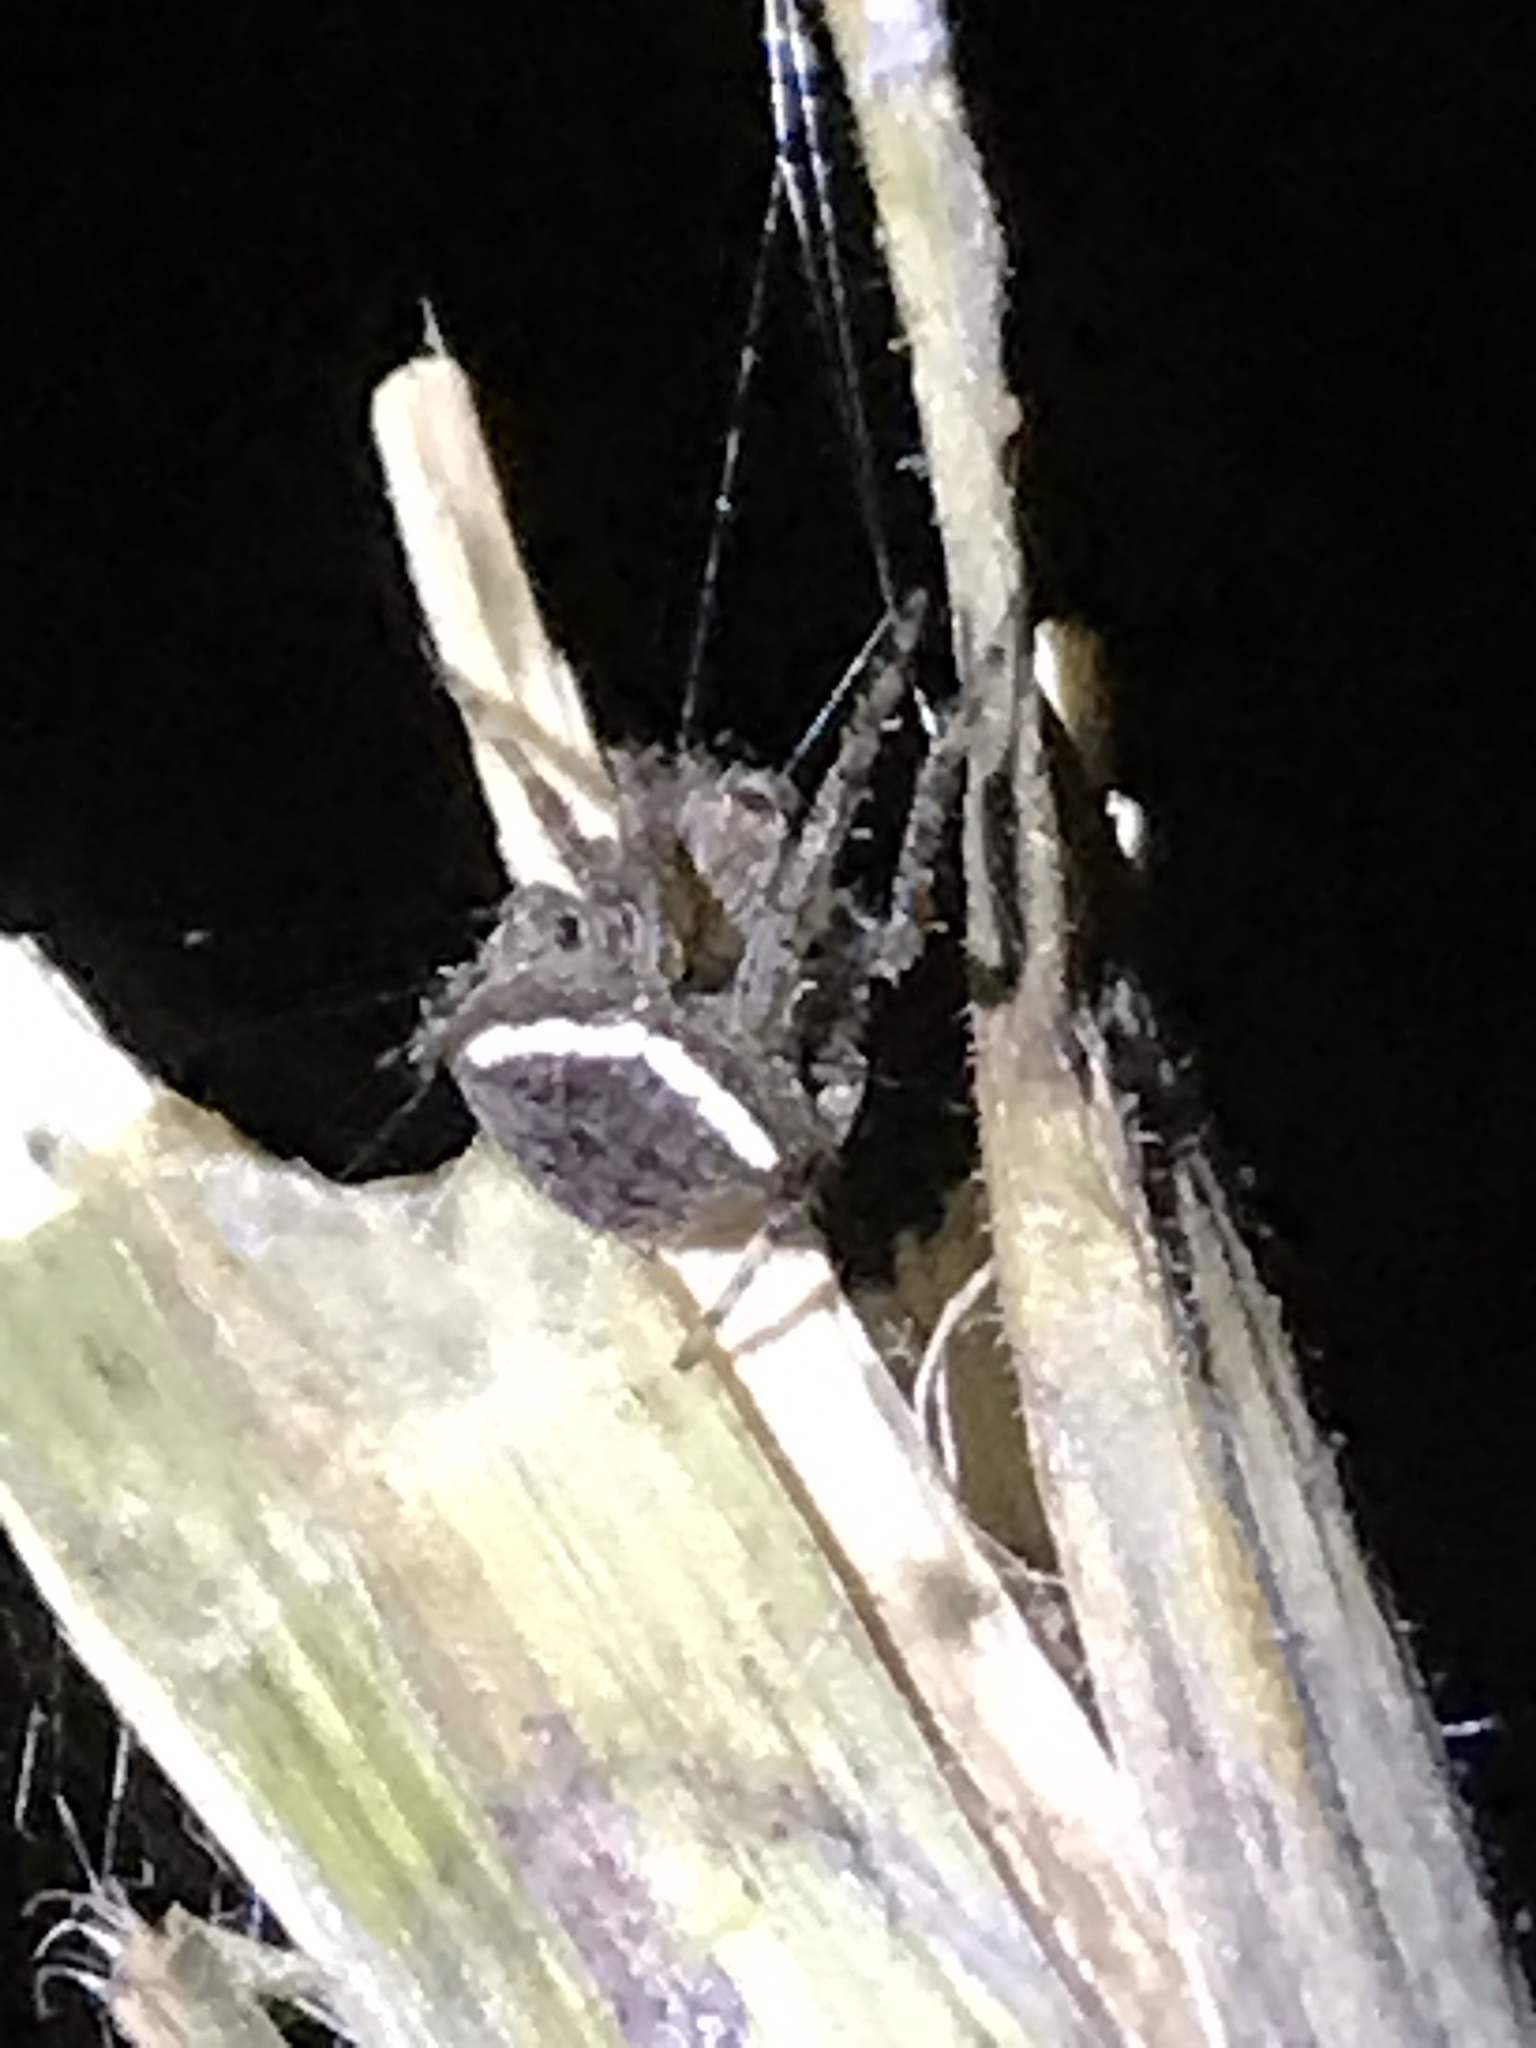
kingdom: Animalia
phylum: Arthropoda
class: Arachnida
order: Araneae
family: Araneidae
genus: Araneus
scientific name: Araneus montereyensis
